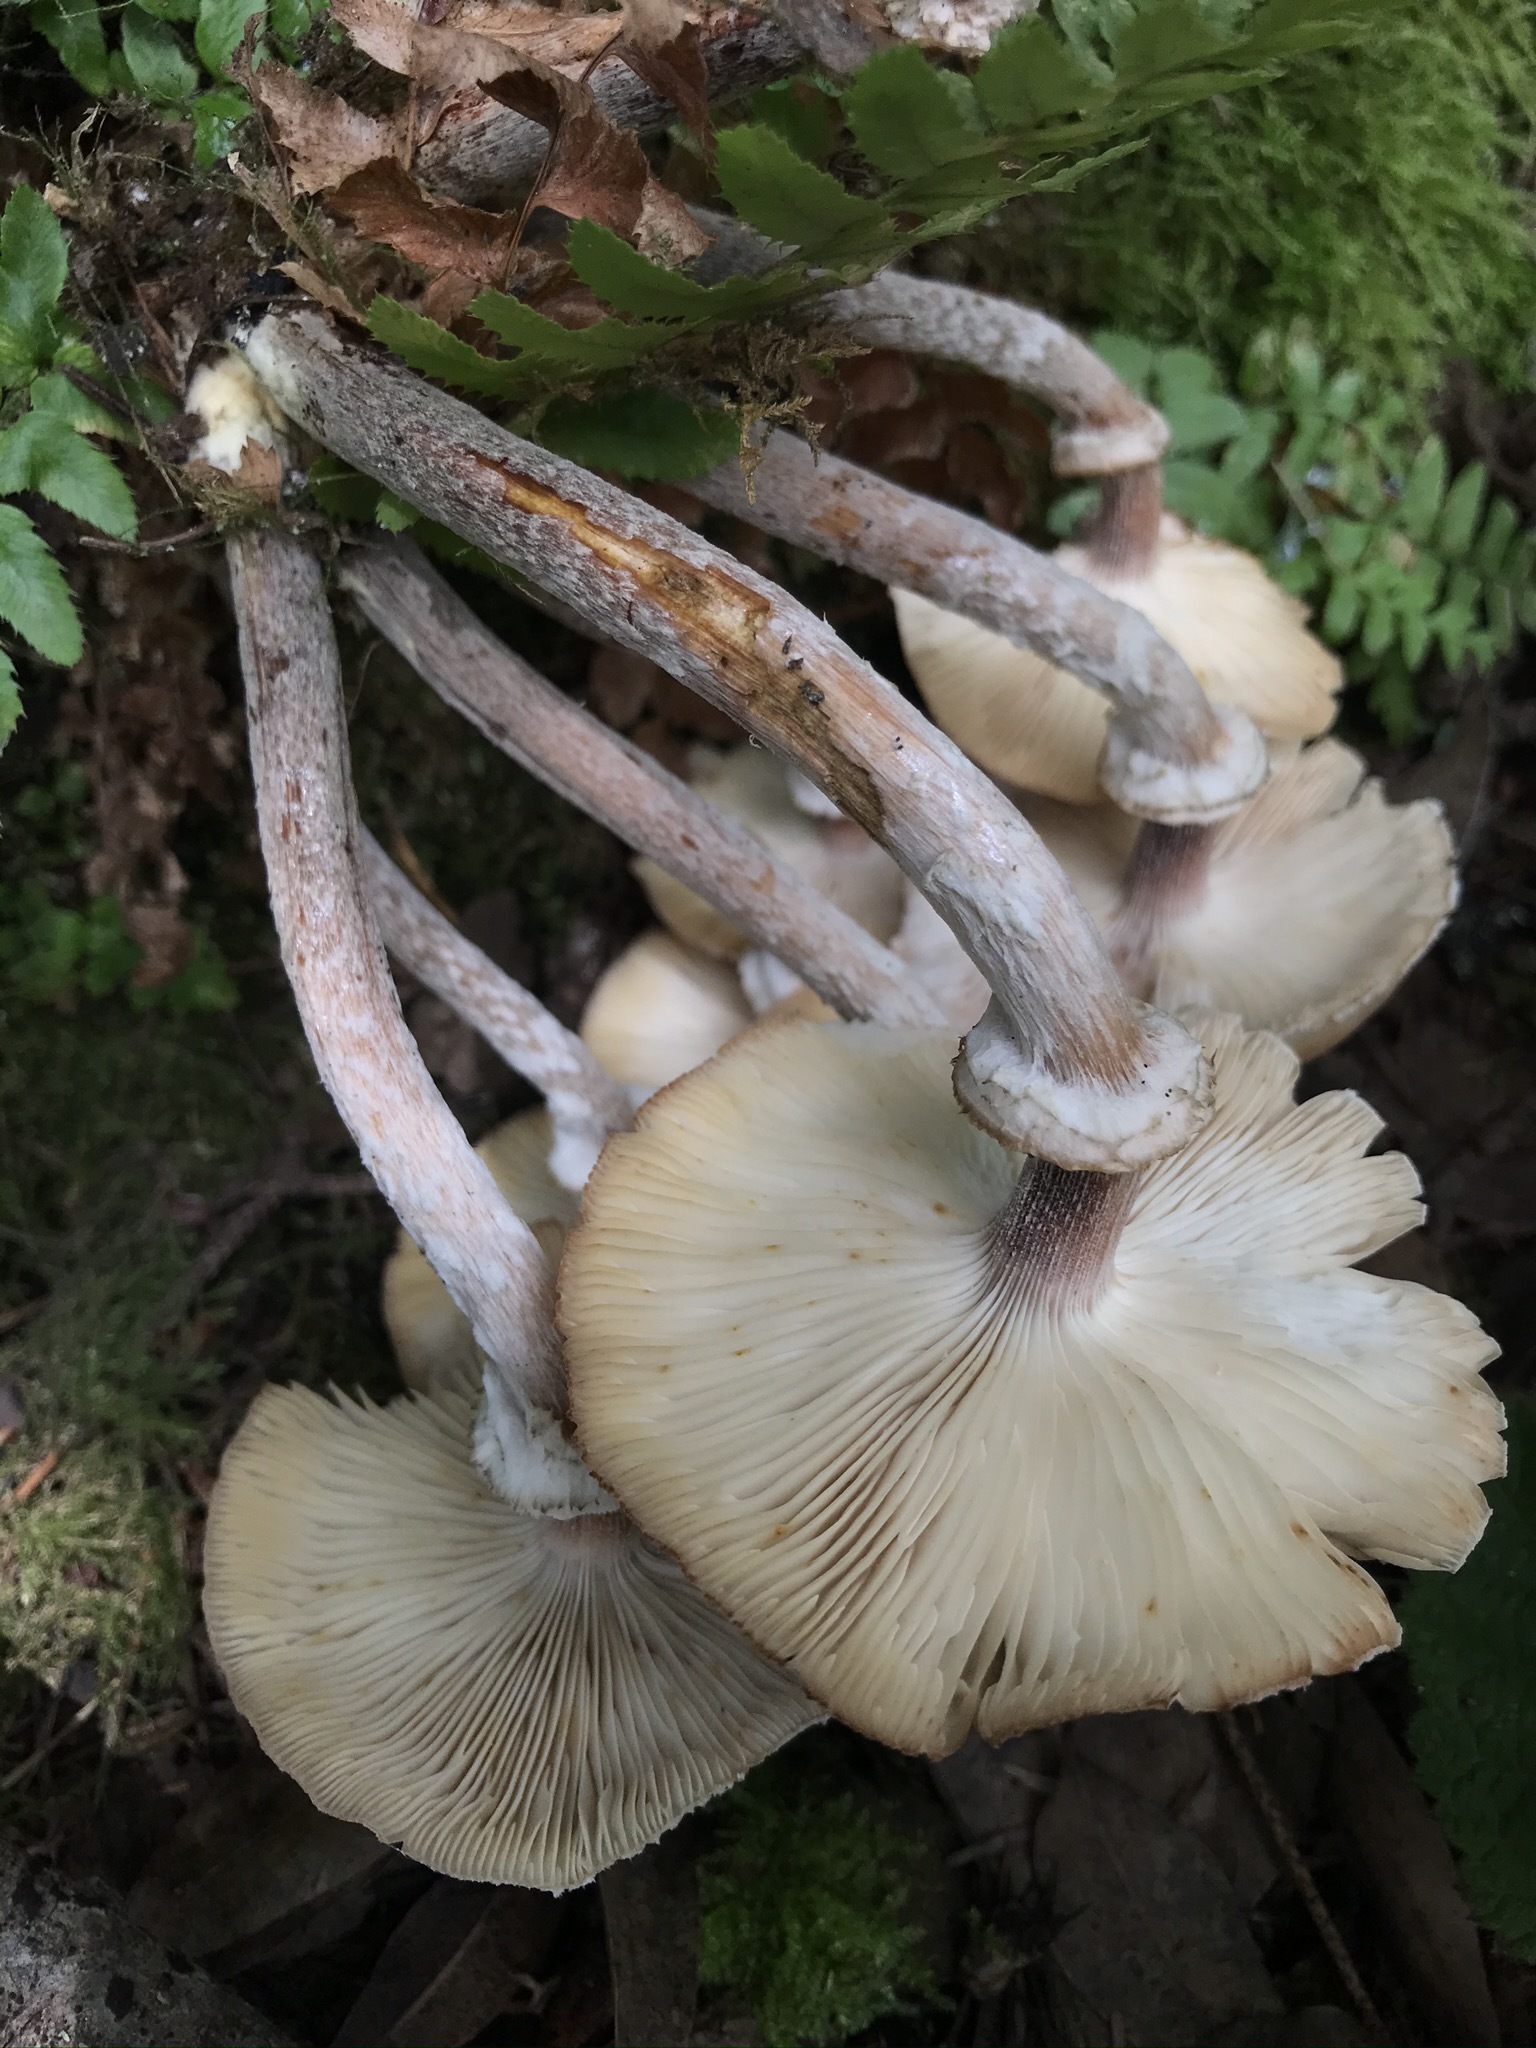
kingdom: Fungi
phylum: Basidiomycota
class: Agaricomycetes
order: Agaricales
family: Physalacriaceae
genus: Armillaria
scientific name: Armillaria mellea
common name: Honey fungus
